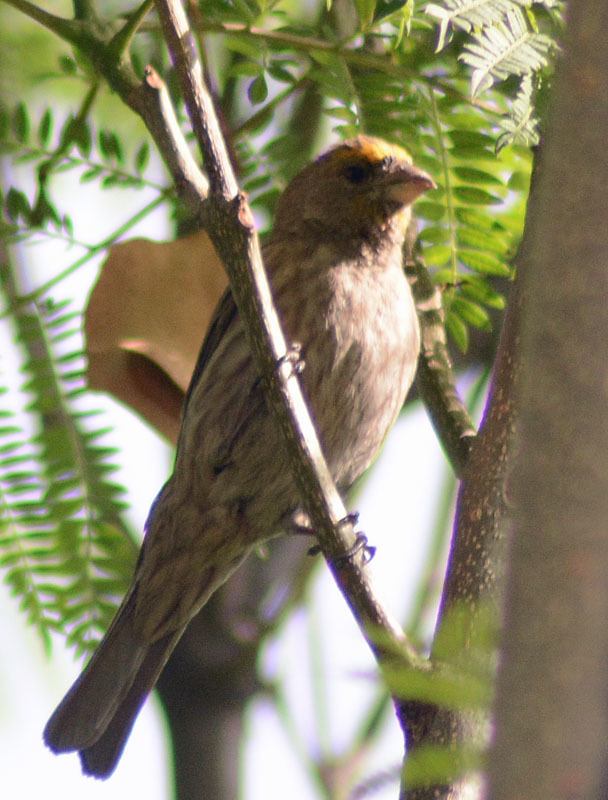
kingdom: Animalia
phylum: Chordata
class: Aves
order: Passeriformes
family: Fringillidae
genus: Haemorhous
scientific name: Haemorhous mexicanus
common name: House finch
